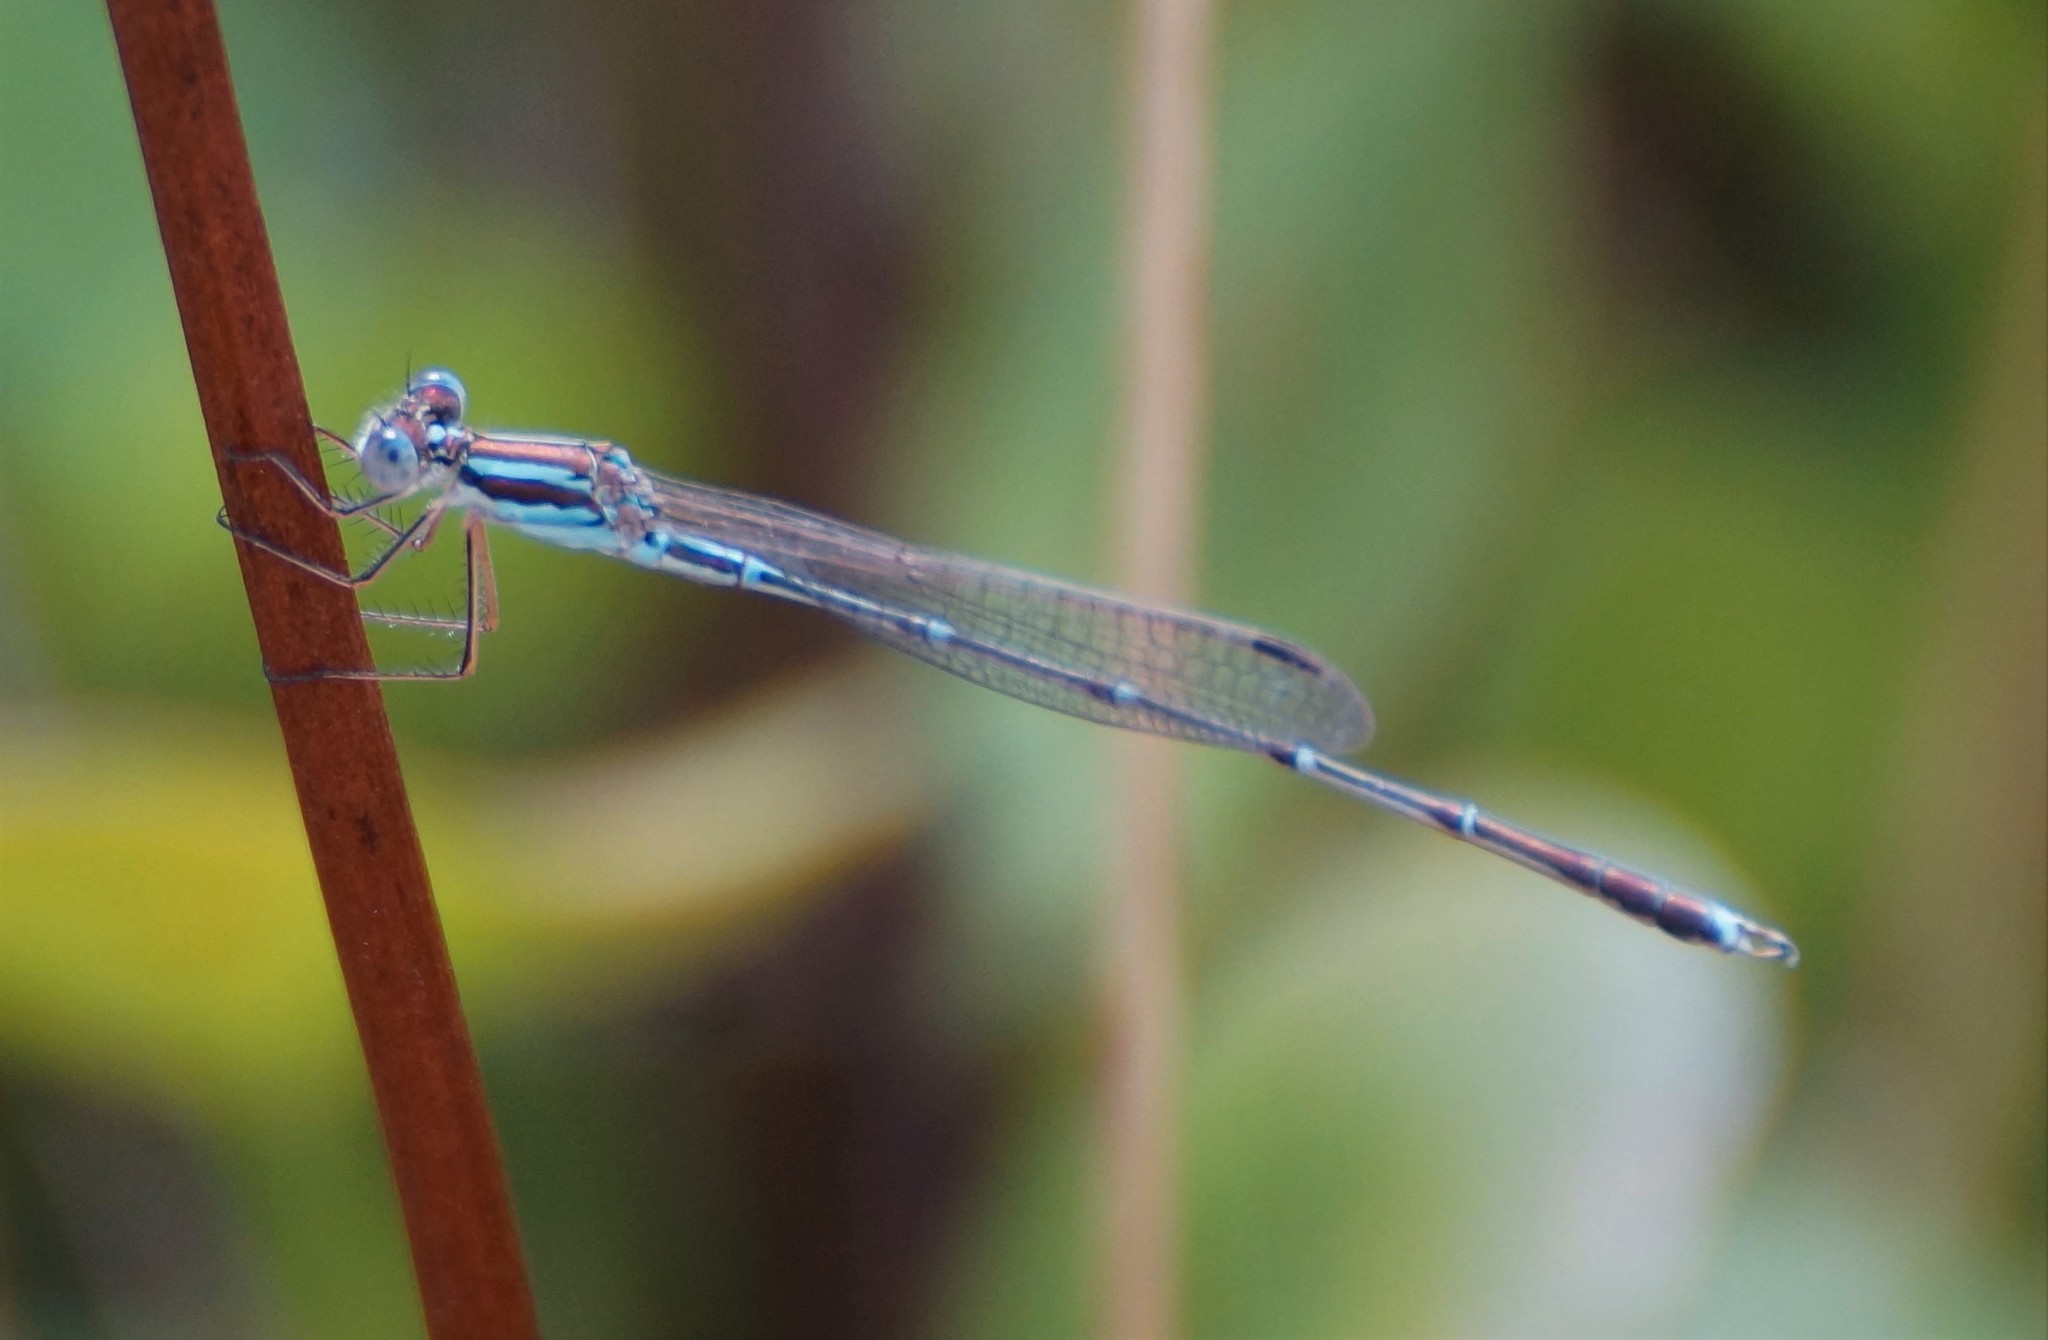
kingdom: Animalia
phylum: Arthropoda
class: Insecta
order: Odonata
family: Lestidae
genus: Austrolestes
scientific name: Austrolestes analis
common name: Slender ringtail
